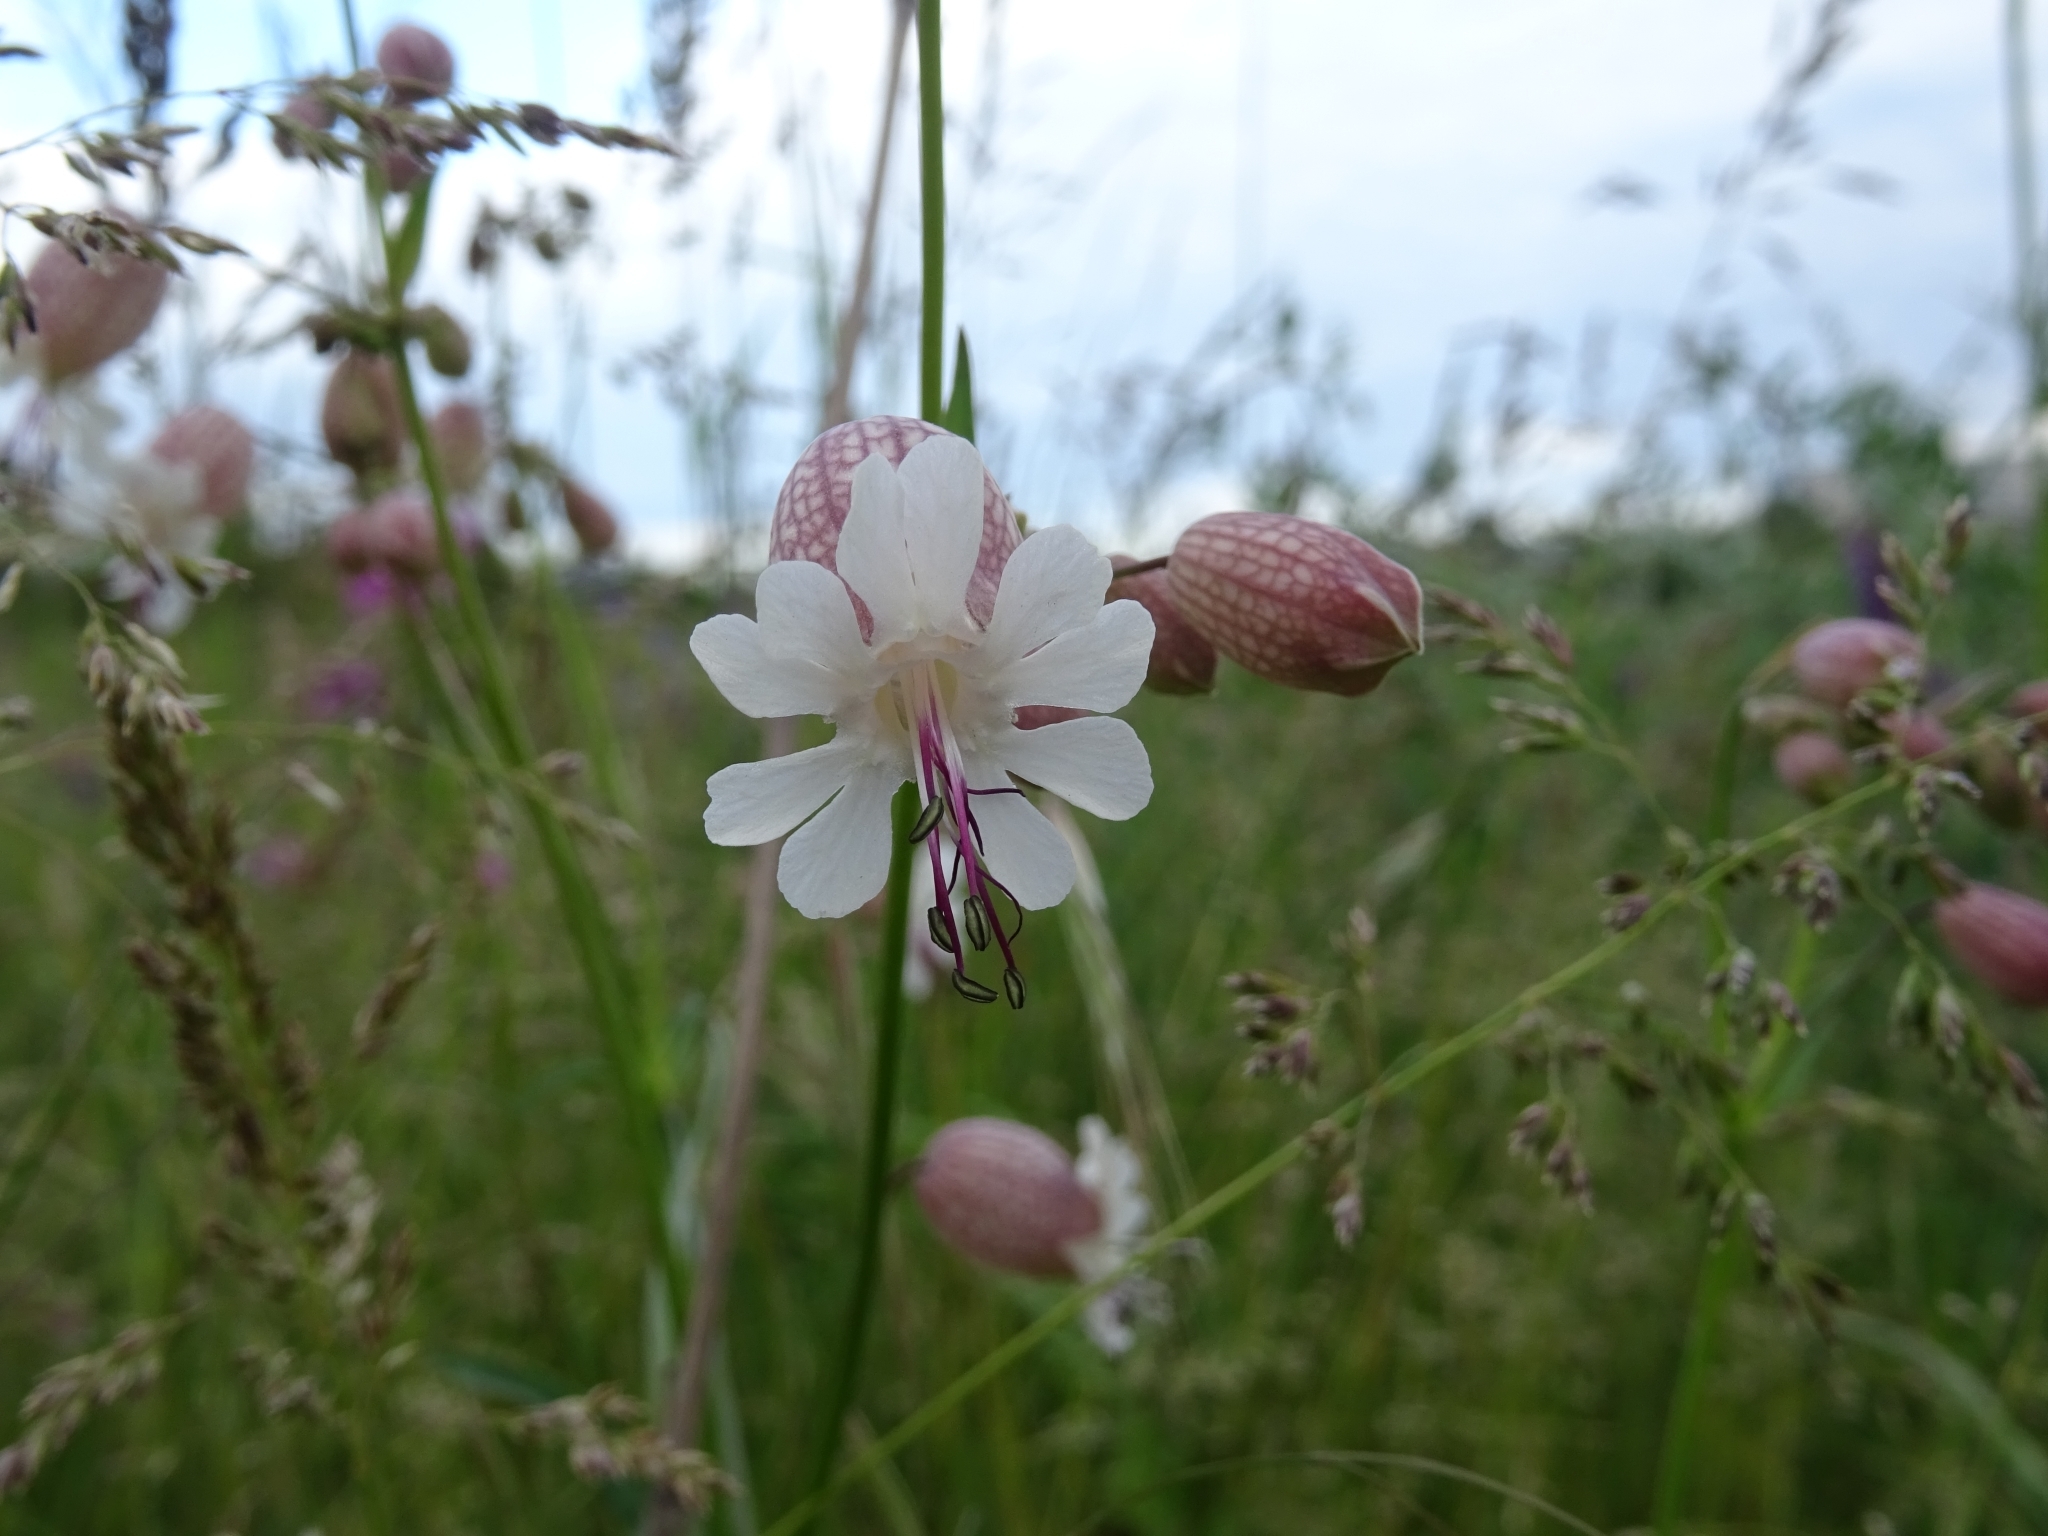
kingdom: Plantae
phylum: Tracheophyta
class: Magnoliopsida
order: Caryophyllales
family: Caryophyllaceae
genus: Silene
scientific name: Silene vulgaris
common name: Bladder campion
